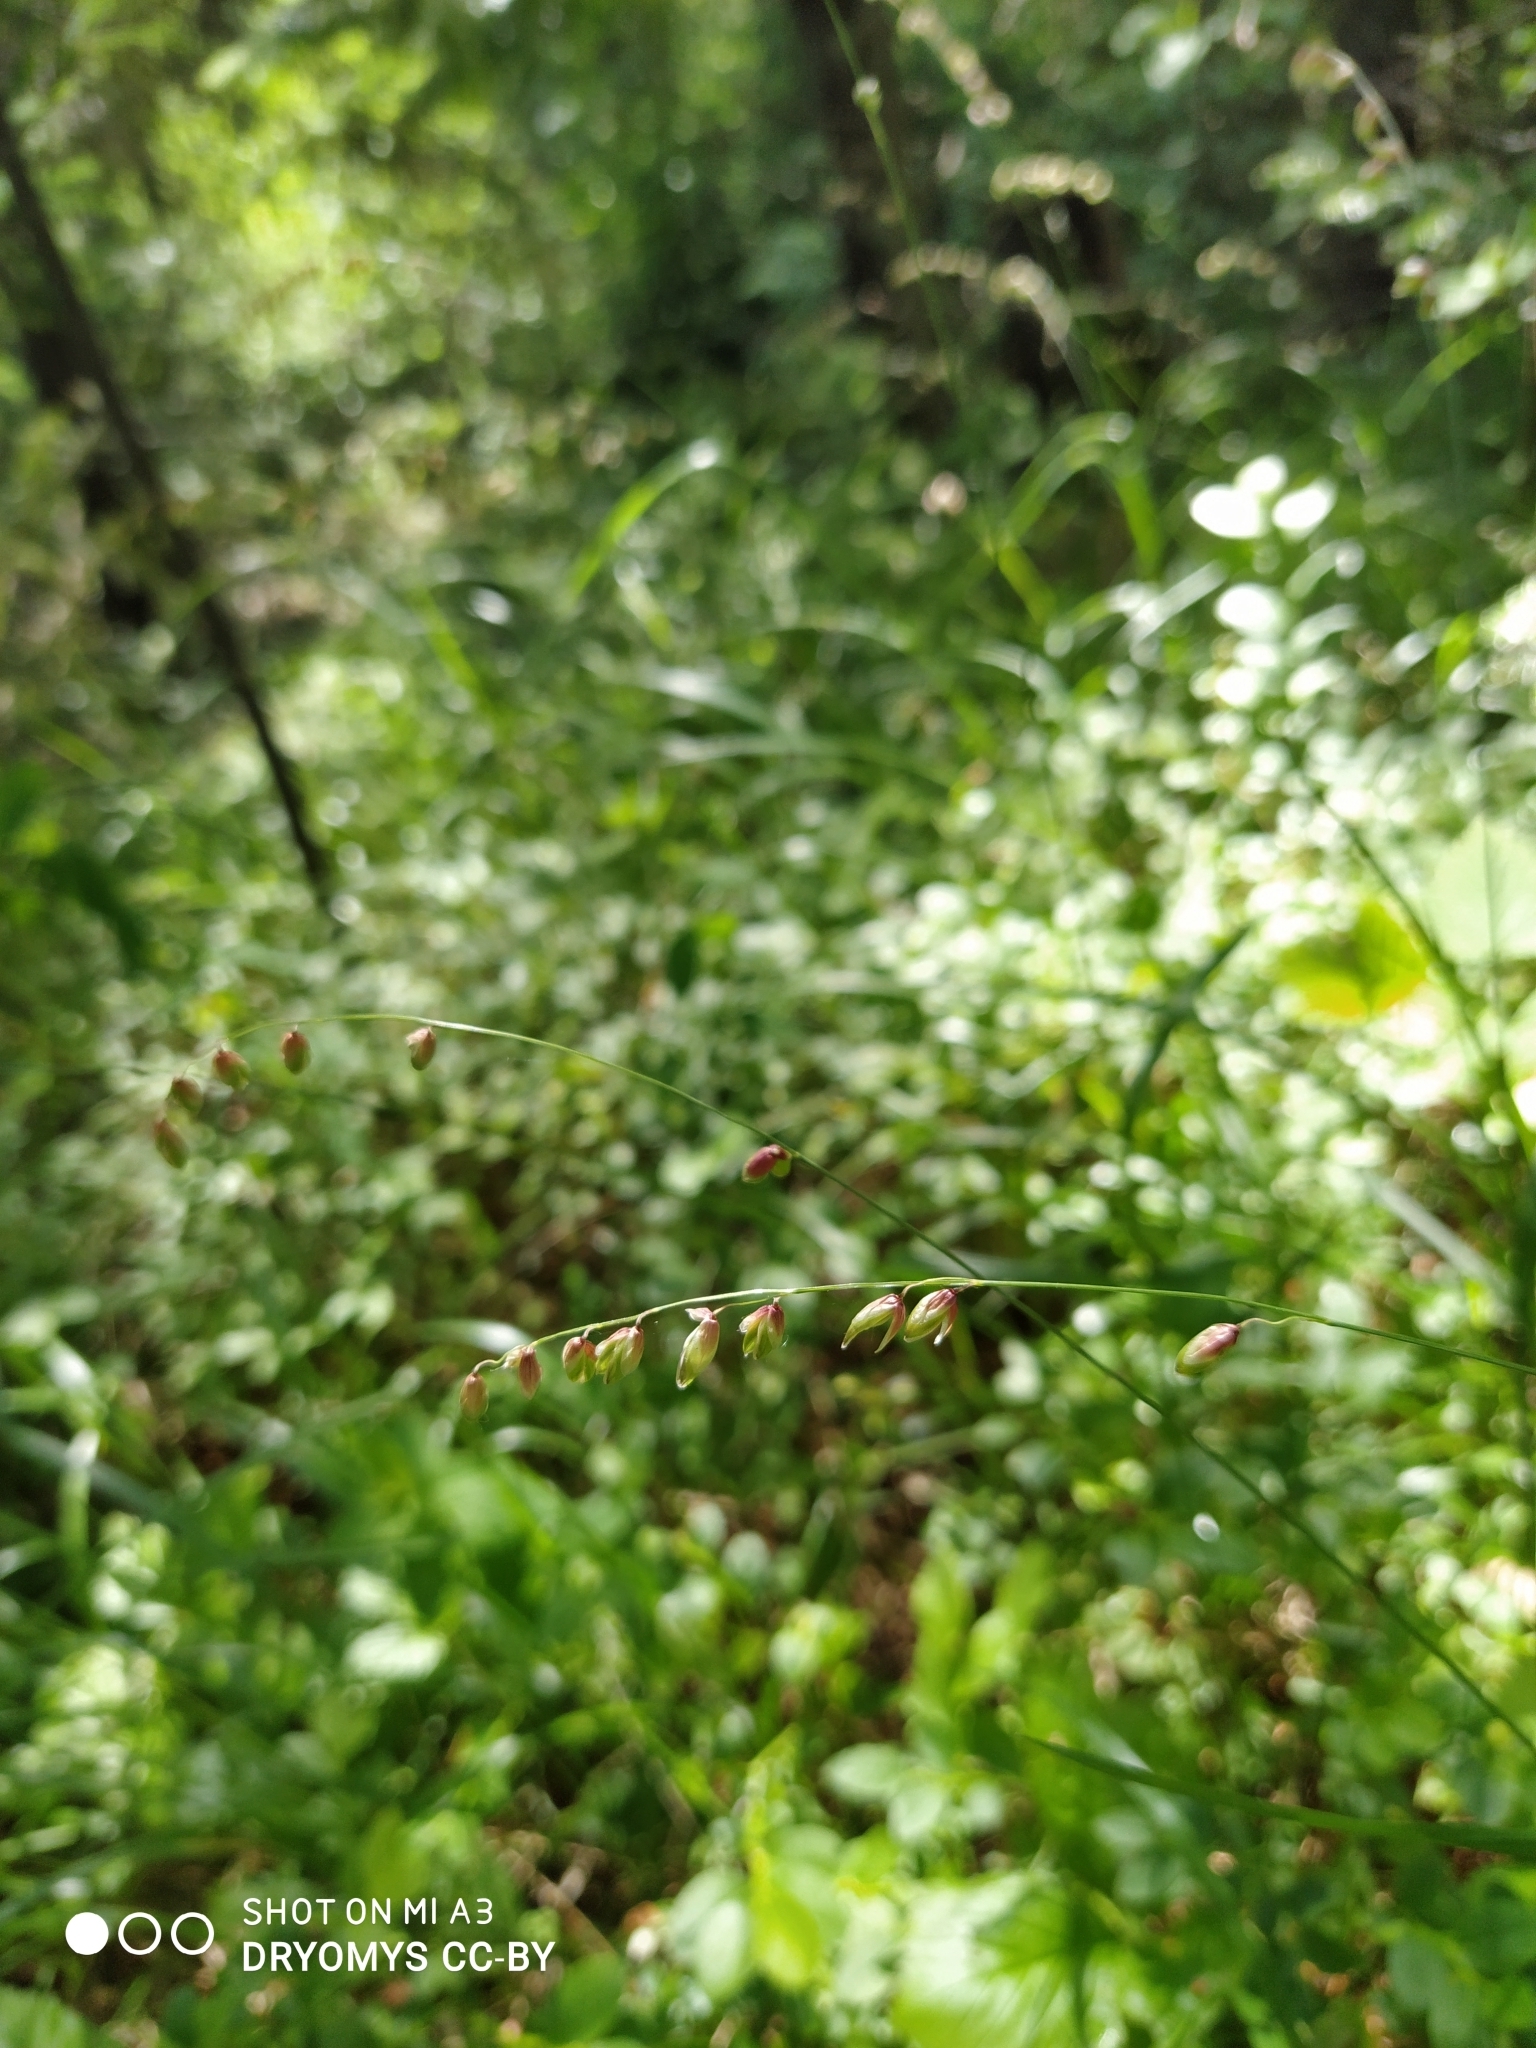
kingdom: Plantae
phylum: Tracheophyta
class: Liliopsida
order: Poales
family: Poaceae
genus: Melica
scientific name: Melica nutans
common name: Mountain melick
